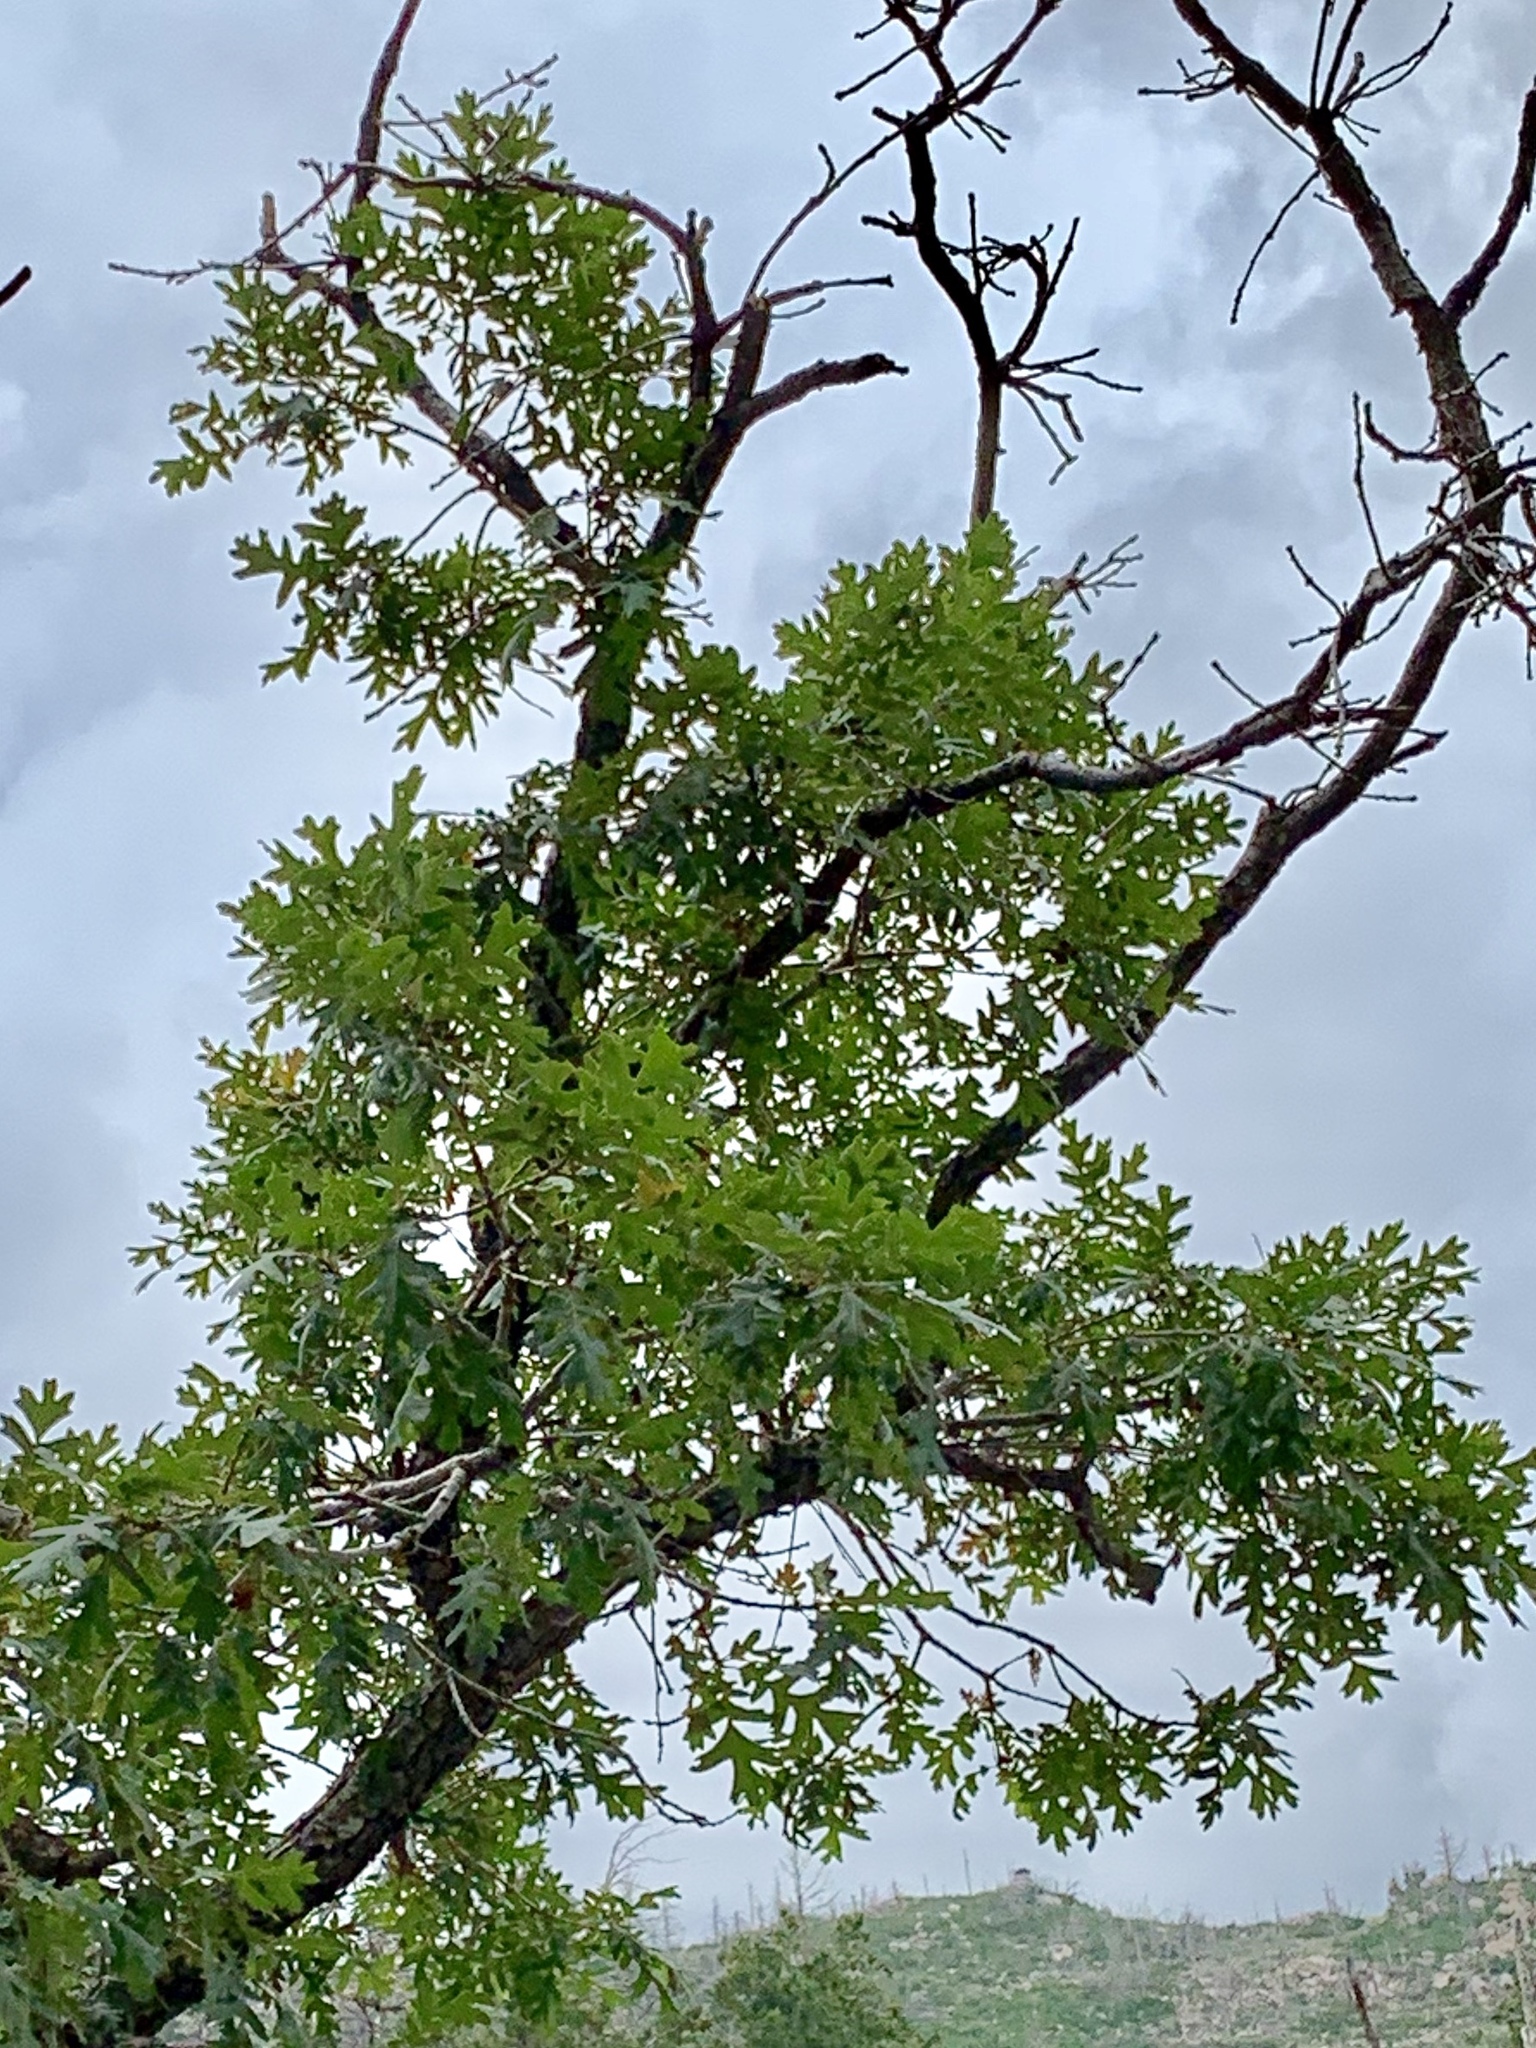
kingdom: Plantae
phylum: Tracheophyta
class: Magnoliopsida
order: Fagales
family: Fagaceae
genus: Quercus
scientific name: Quercus gambelii
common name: Gambel oak
